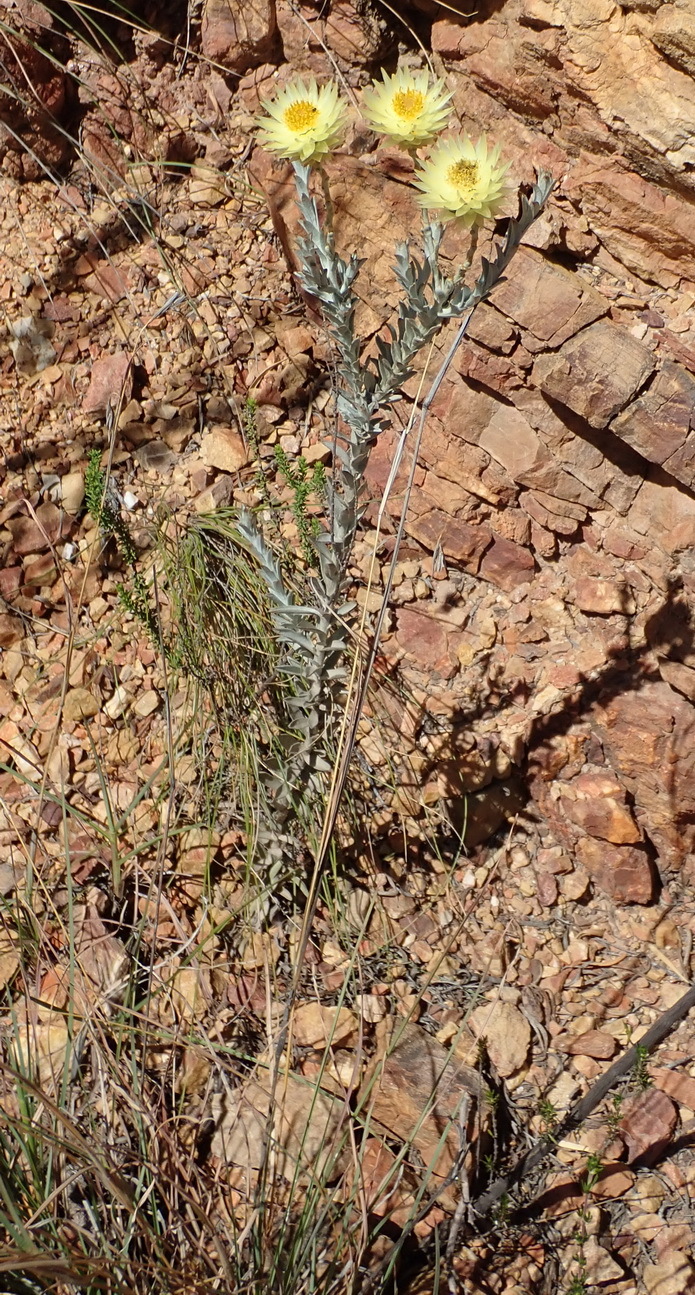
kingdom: Plantae
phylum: Tracheophyta
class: Magnoliopsida
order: Asterales
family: Asteraceae
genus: Syncarpha
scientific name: Syncarpha ferruginea
